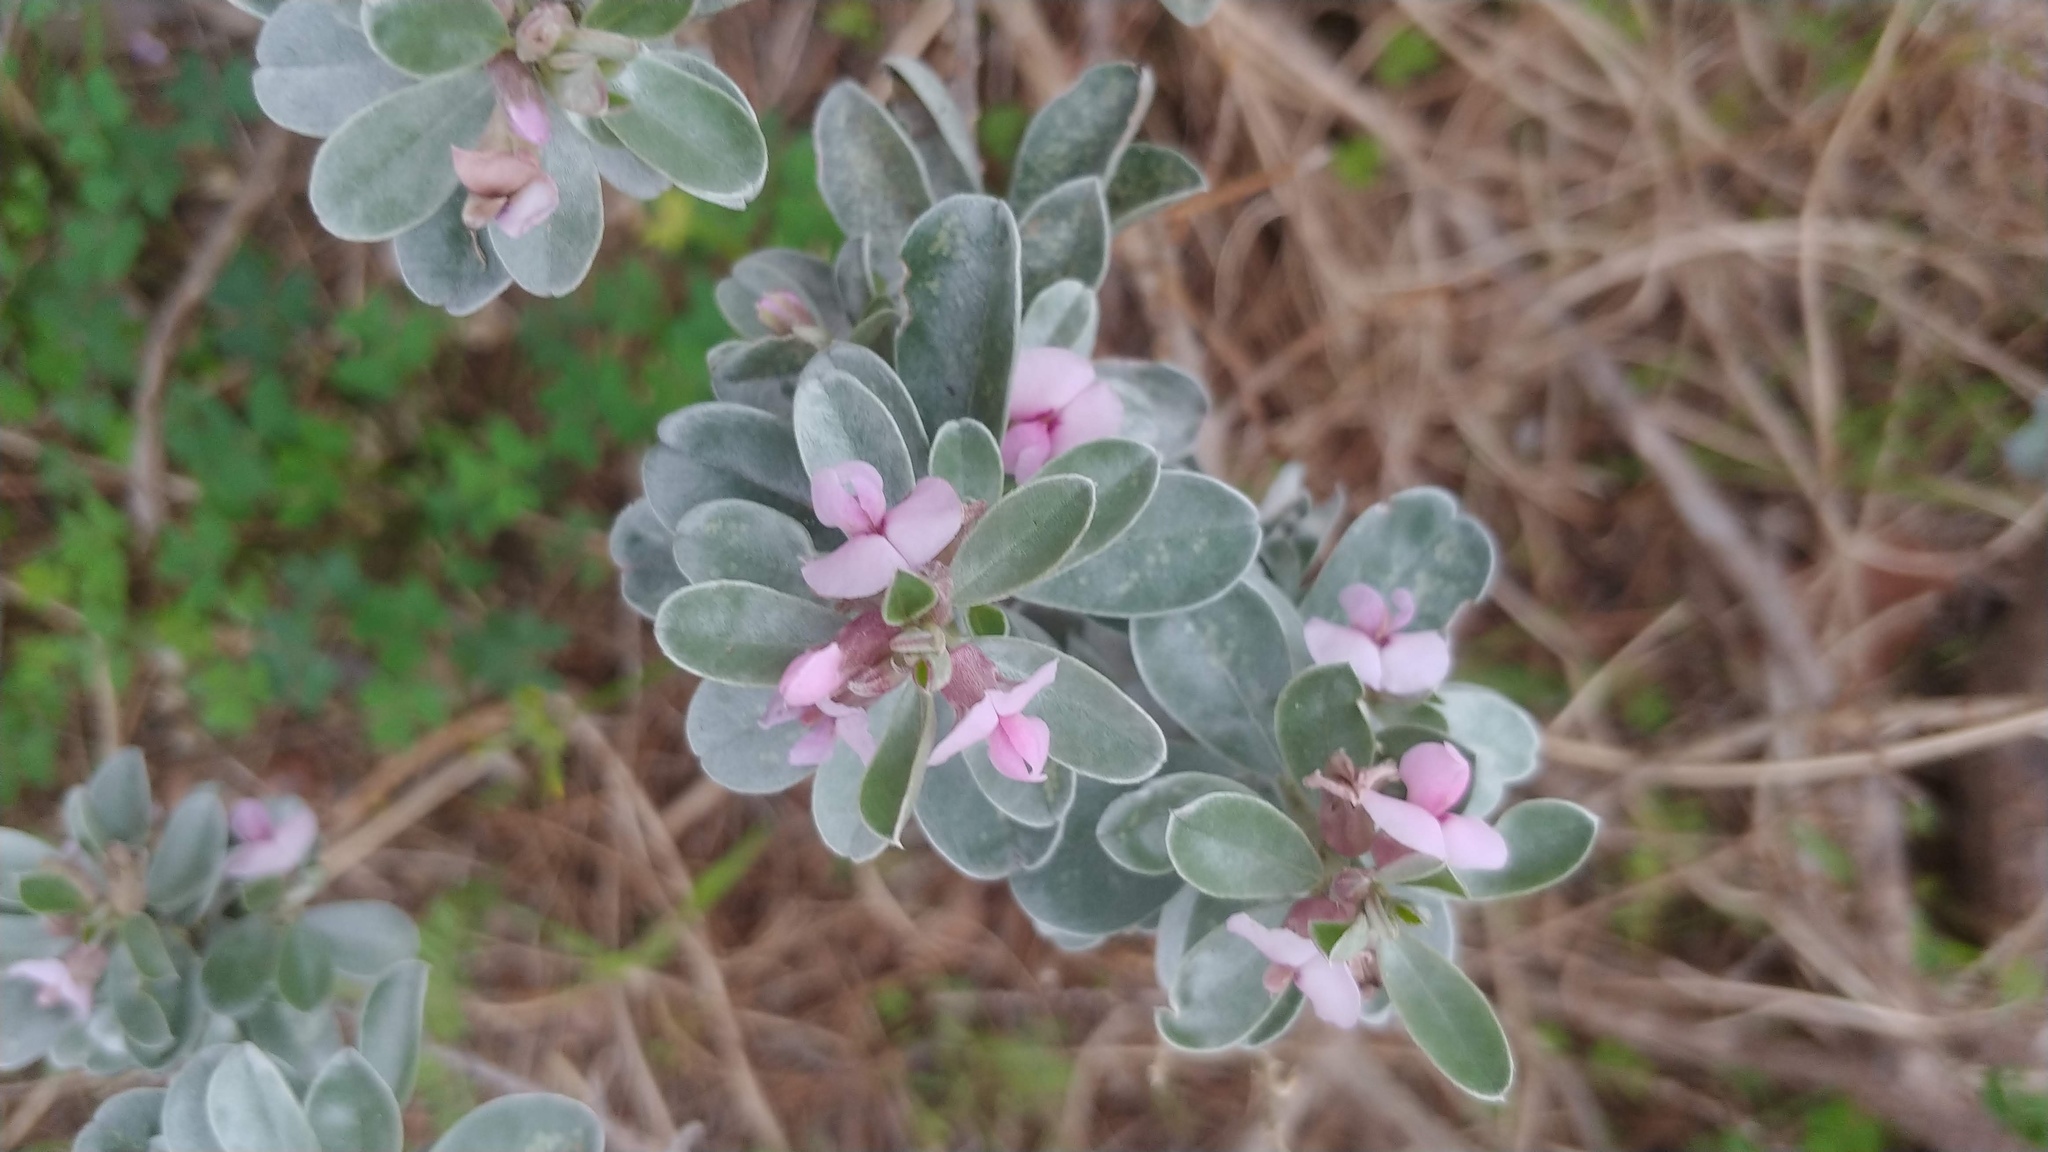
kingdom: Plantae
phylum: Tracheophyta
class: Magnoliopsida
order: Fabales
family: Fabaceae
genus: Podalyria
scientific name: Podalyria sericea
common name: Silver podalyria
